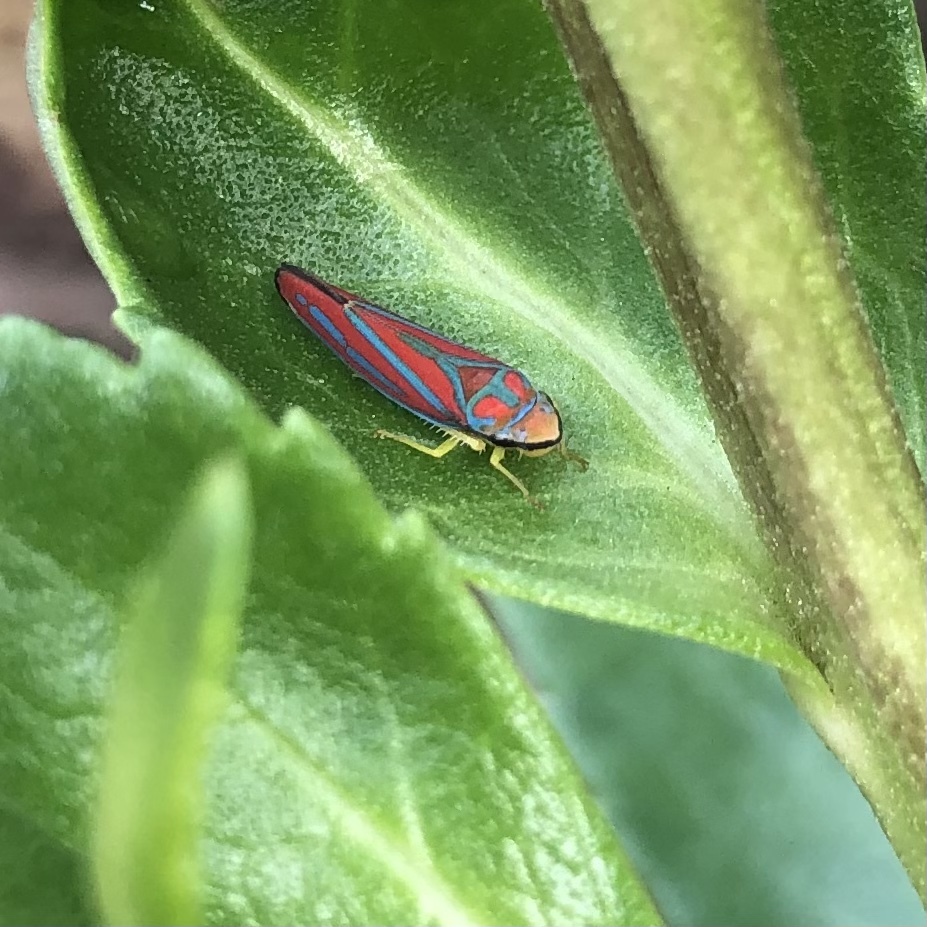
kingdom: Animalia
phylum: Arthropoda
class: Insecta
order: Hemiptera
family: Cicadellidae
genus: Graphocephala
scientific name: Graphocephala coccinea
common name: Candy-striped leafhopper
